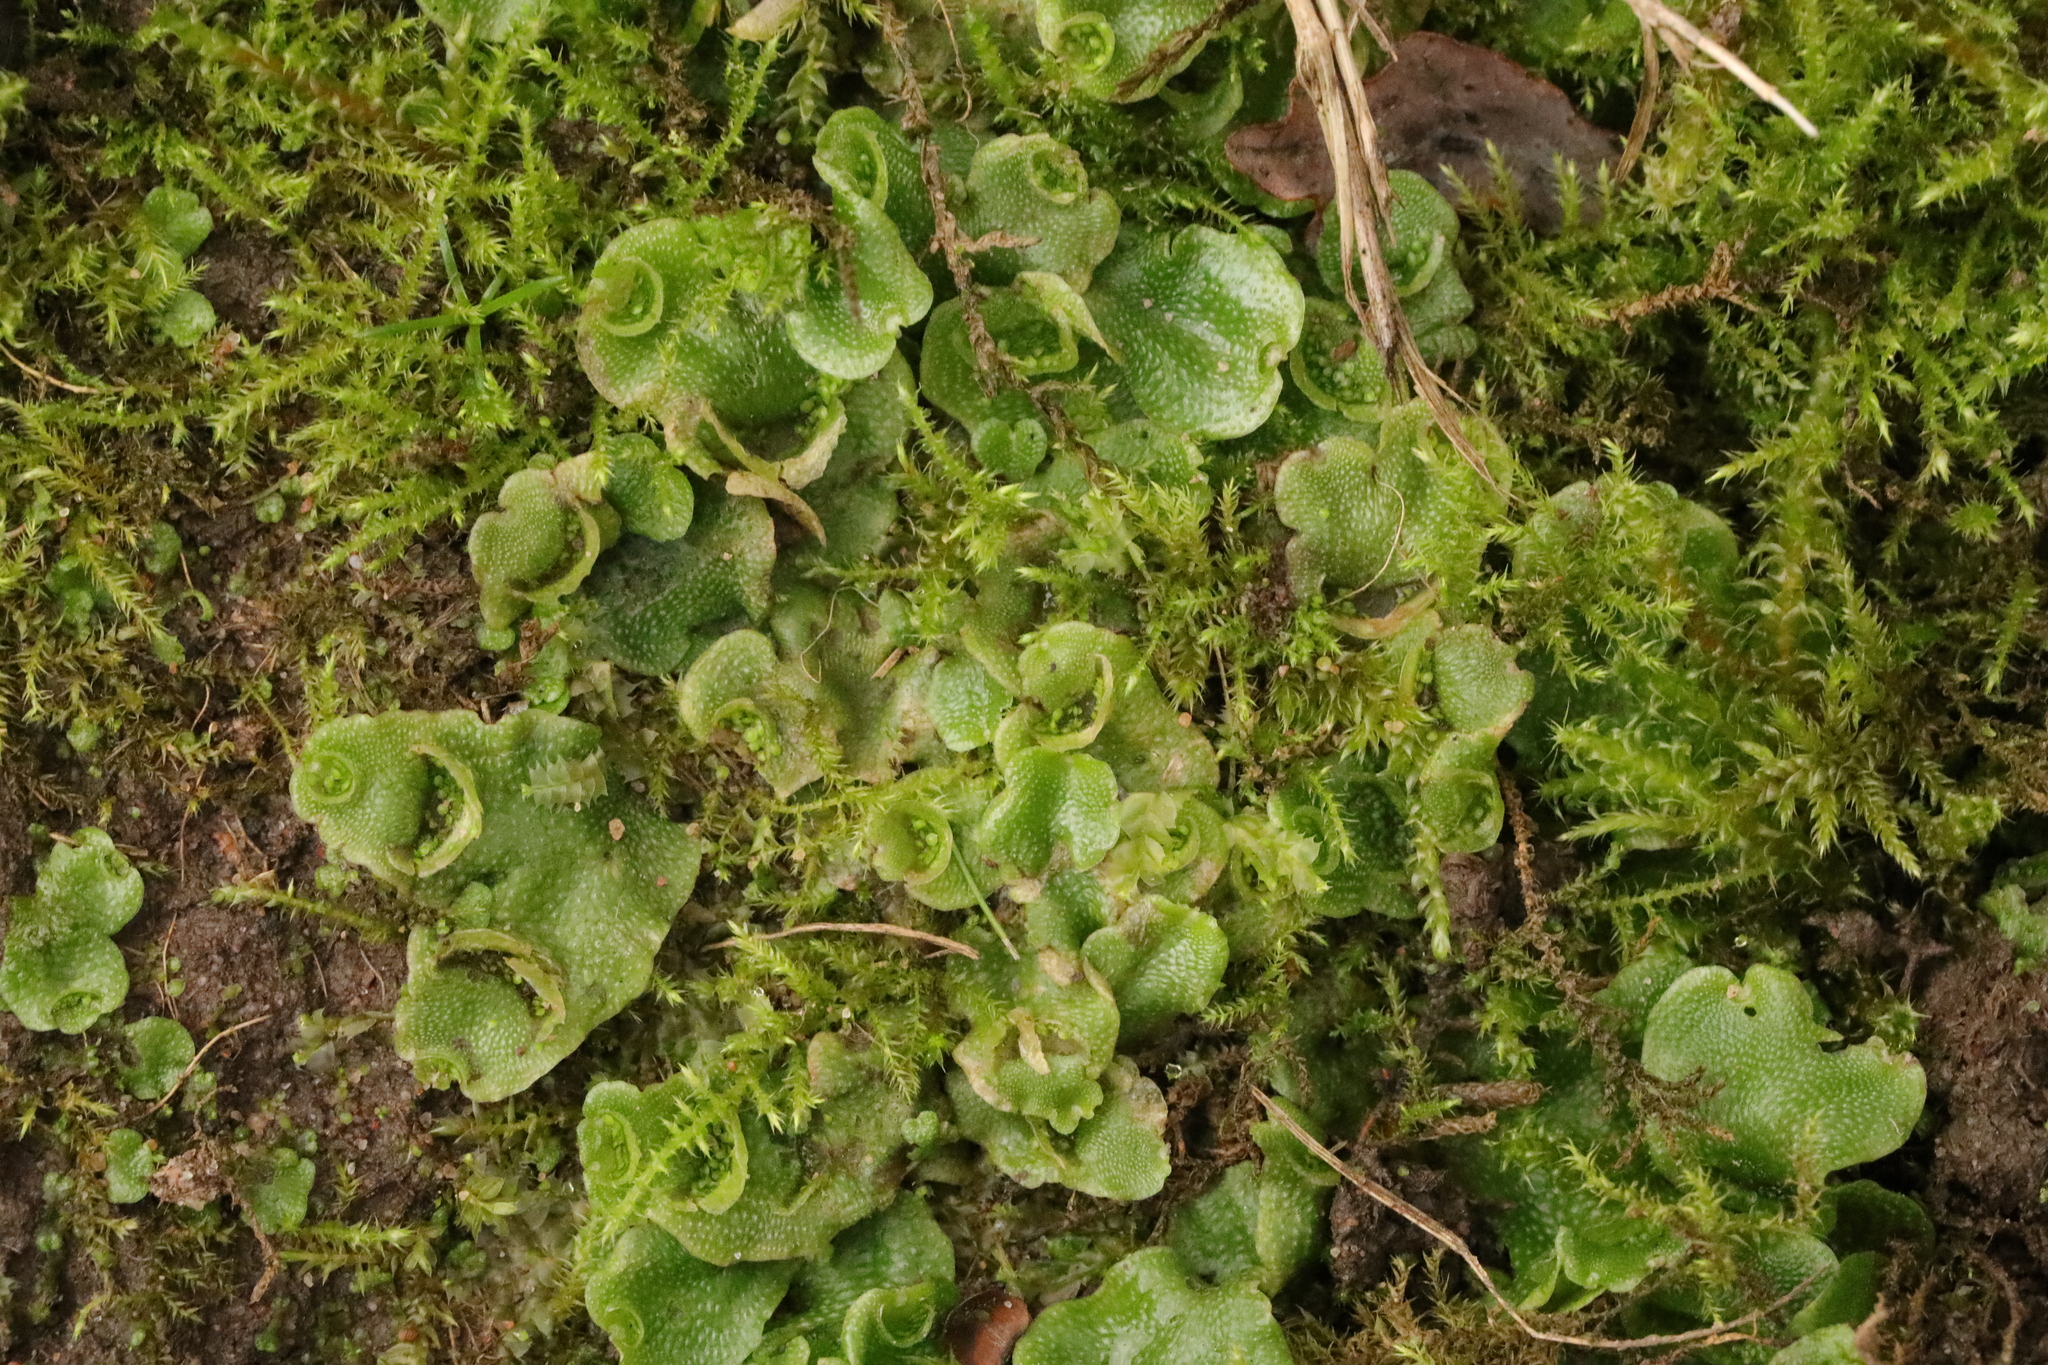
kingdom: Plantae
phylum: Marchantiophyta
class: Marchantiopsida
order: Lunulariales
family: Lunulariaceae
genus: Lunularia
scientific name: Lunularia cruciata
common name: Crescent-cup liverwort
